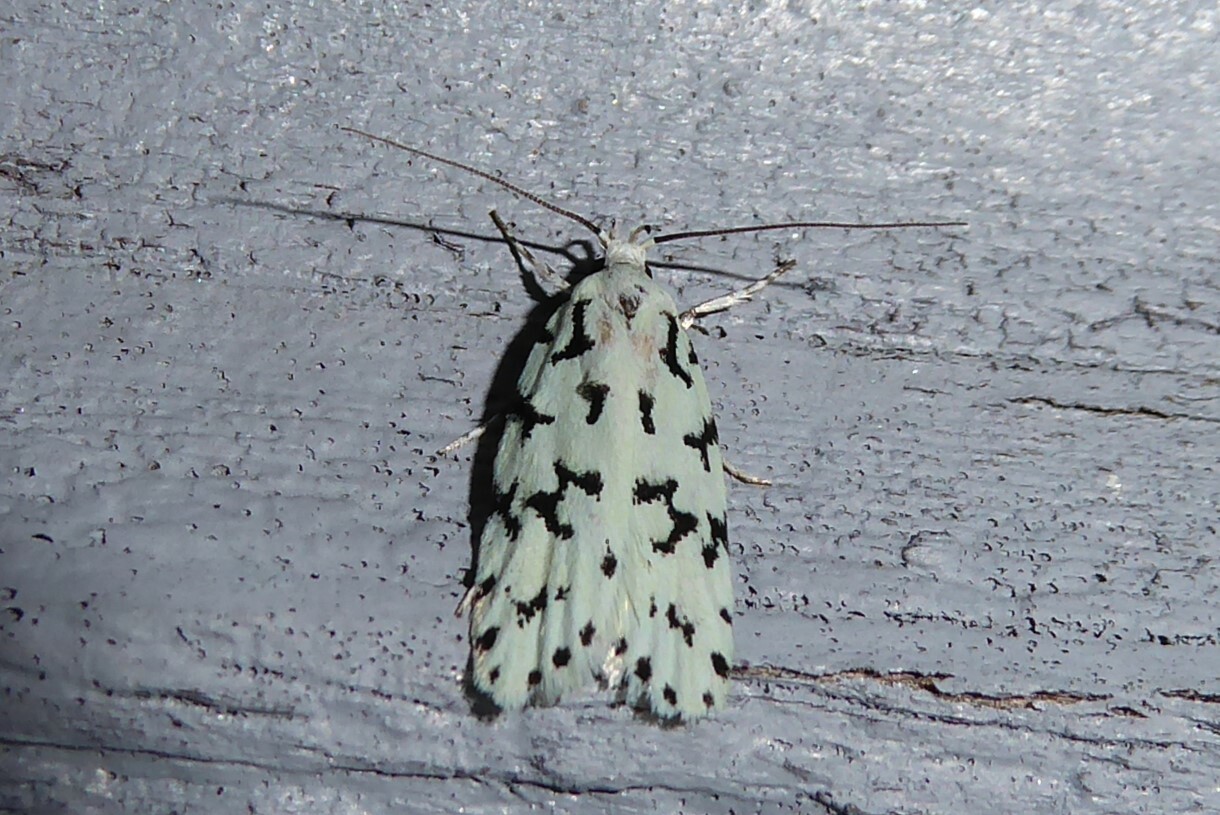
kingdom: Animalia
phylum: Arthropoda
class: Insecta
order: Lepidoptera
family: Oecophoridae
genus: Izatha
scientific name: Izatha huttoni
